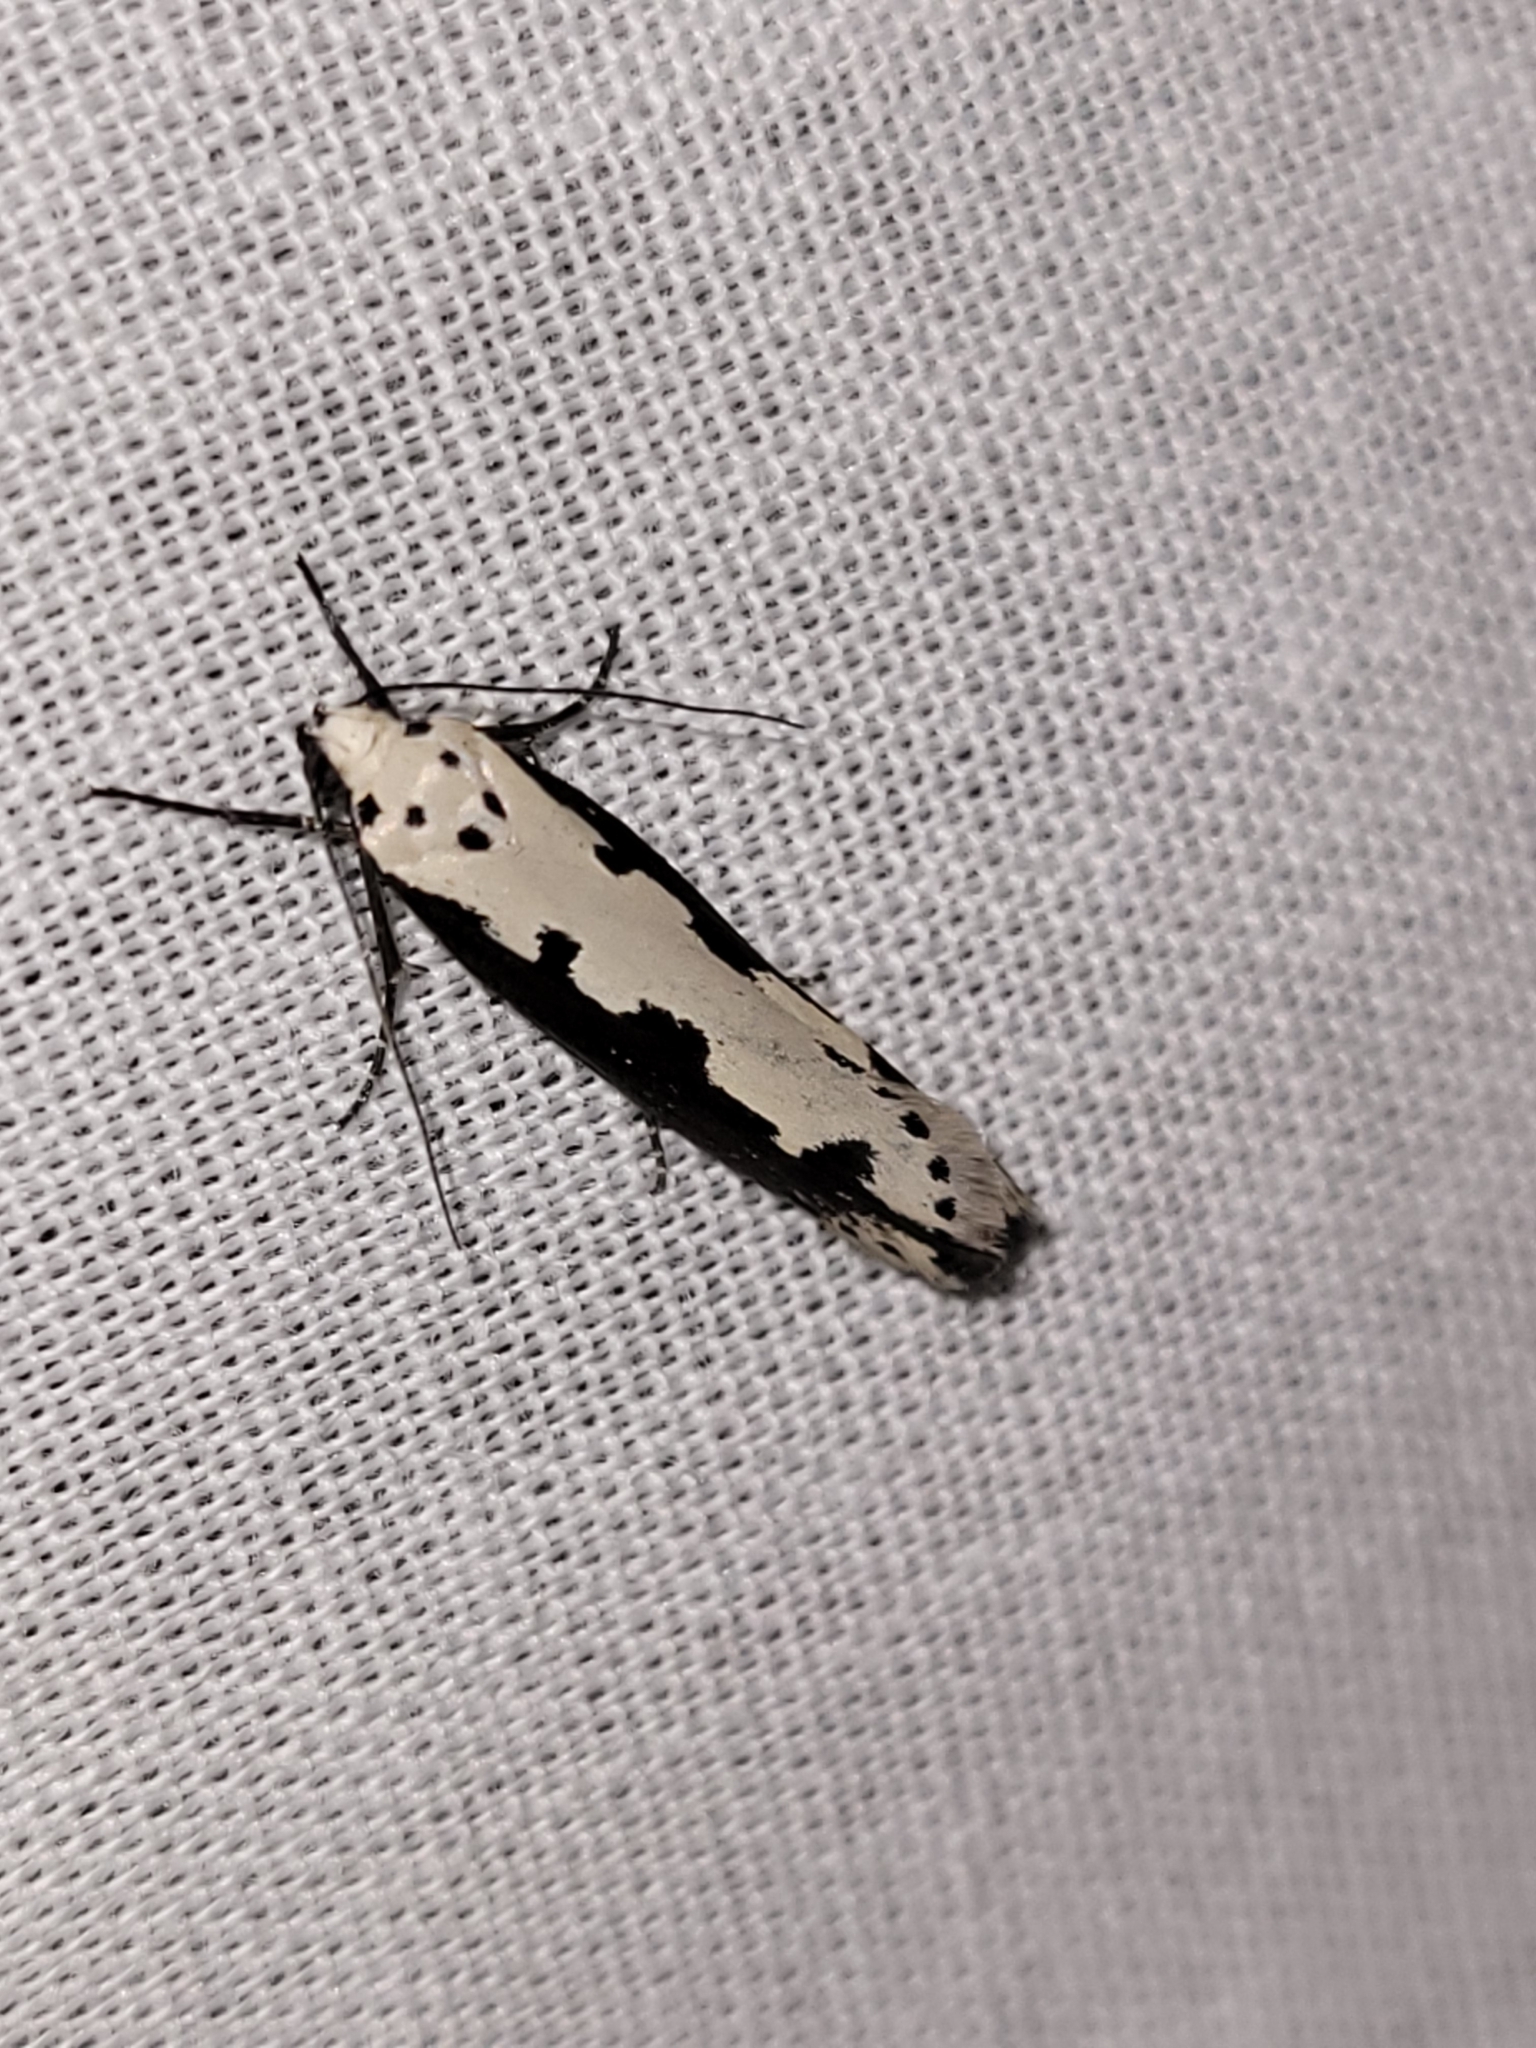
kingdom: Animalia
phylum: Arthropoda
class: Insecta
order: Lepidoptera
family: Ethmiidae
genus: Ethmia
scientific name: Ethmia bipunctella
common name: Bordered ermel
